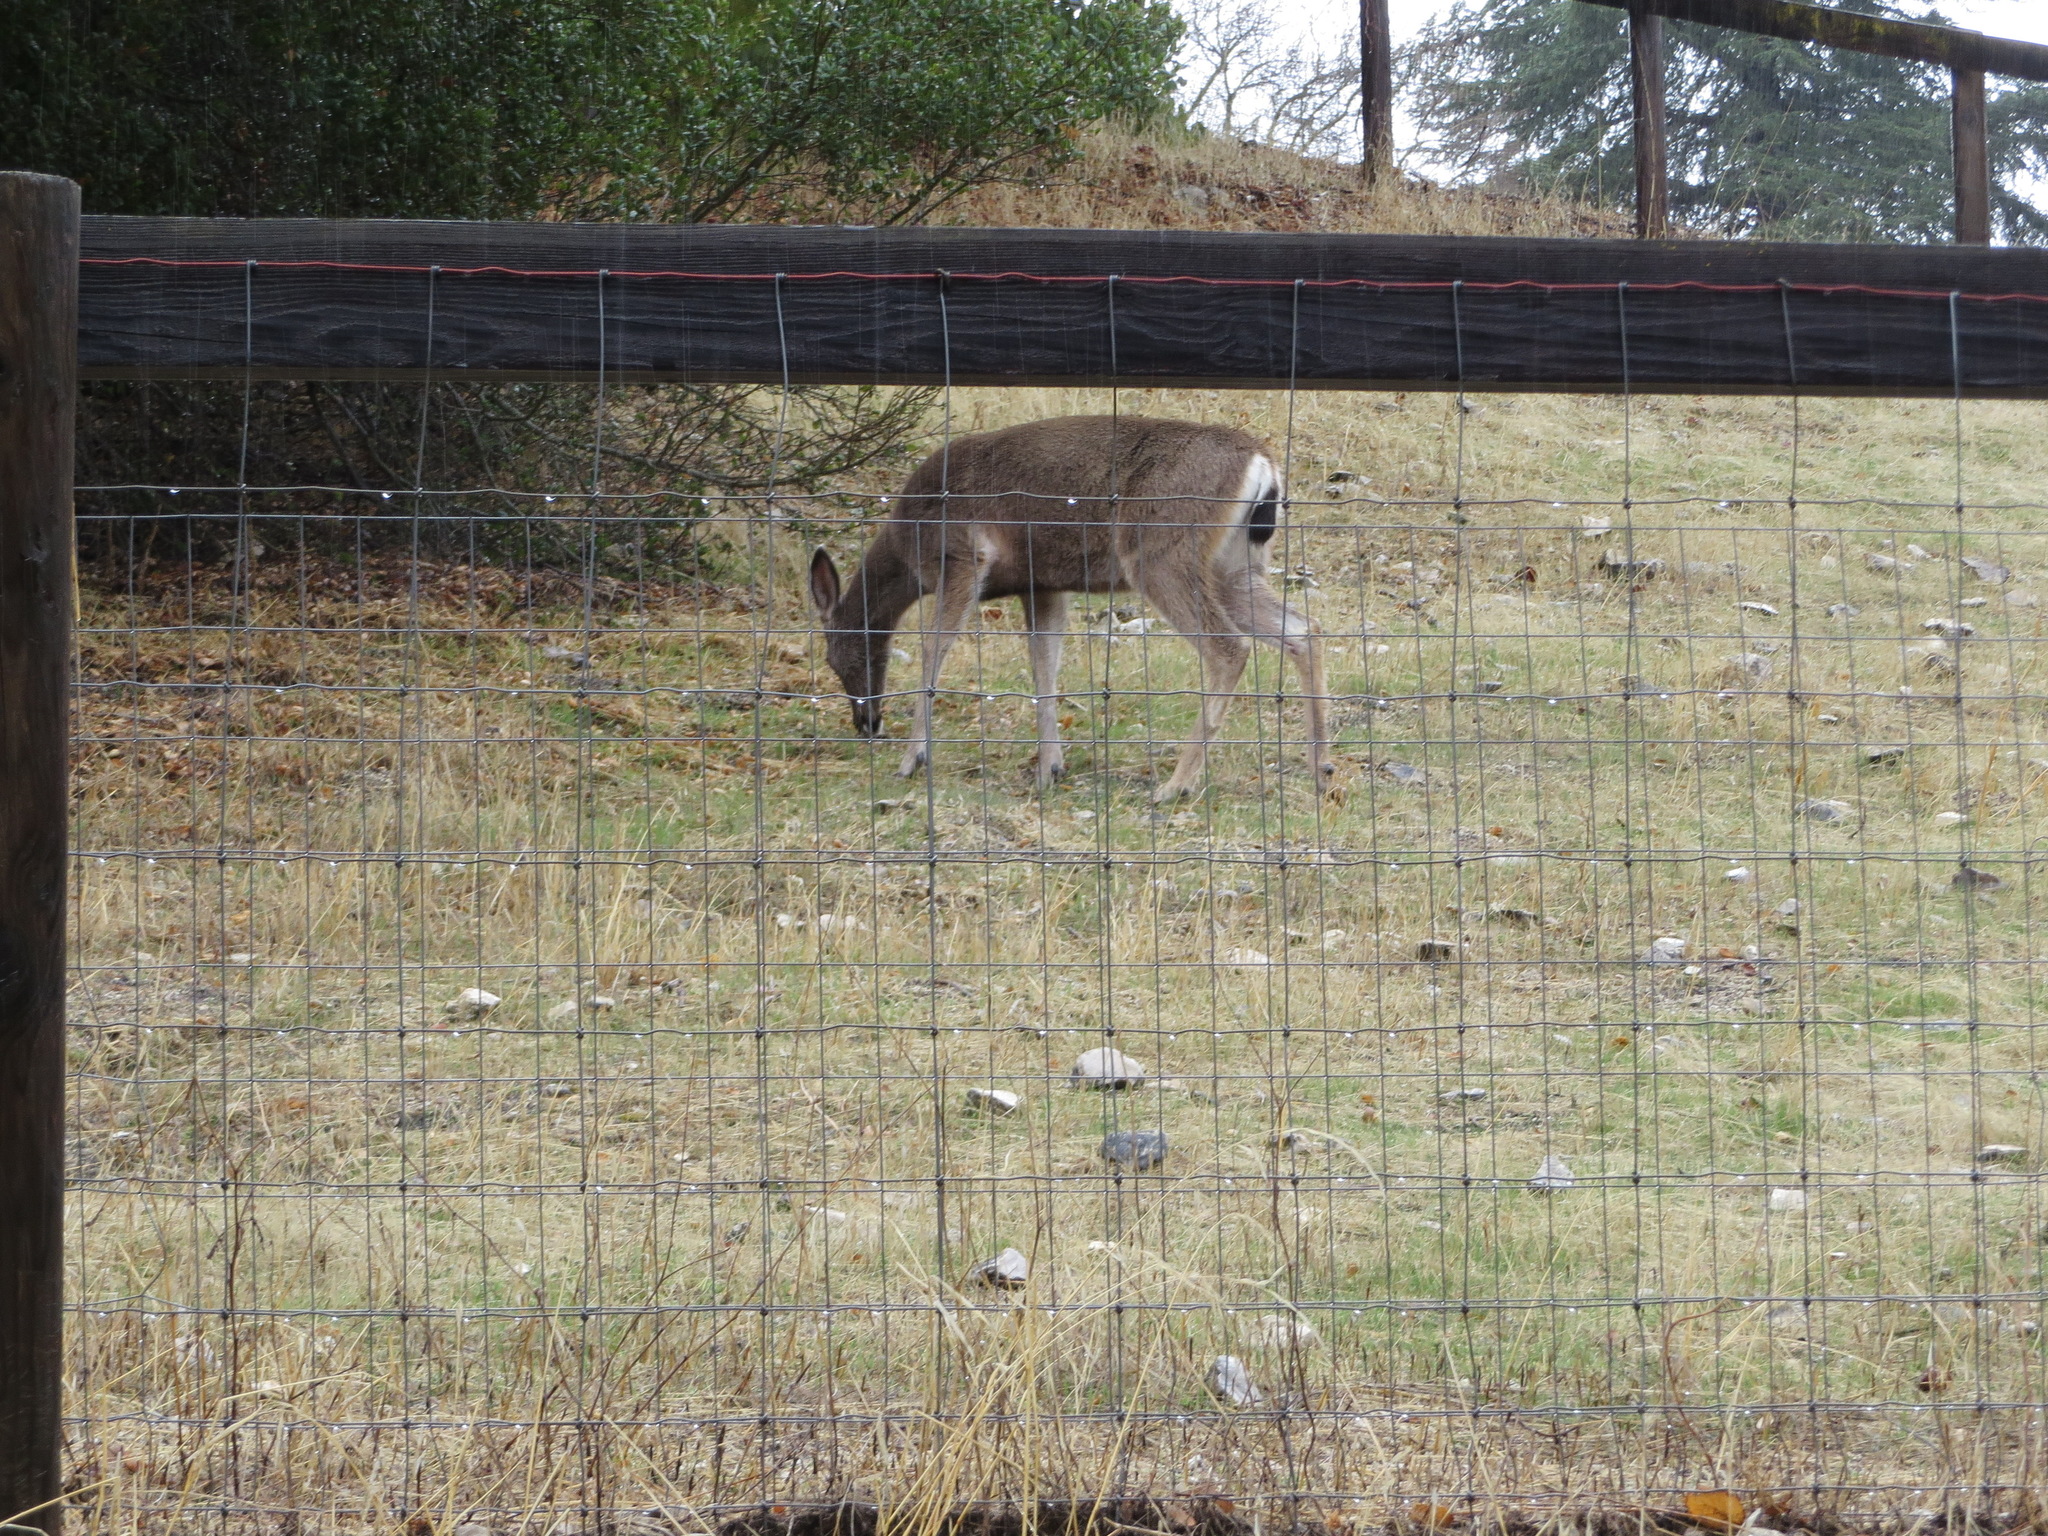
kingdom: Animalia
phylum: Chordata
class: Mammalia
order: Artiodactyla
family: Cervidae
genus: Odocoileus
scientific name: Odocoileus hemionus
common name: Mule deer
